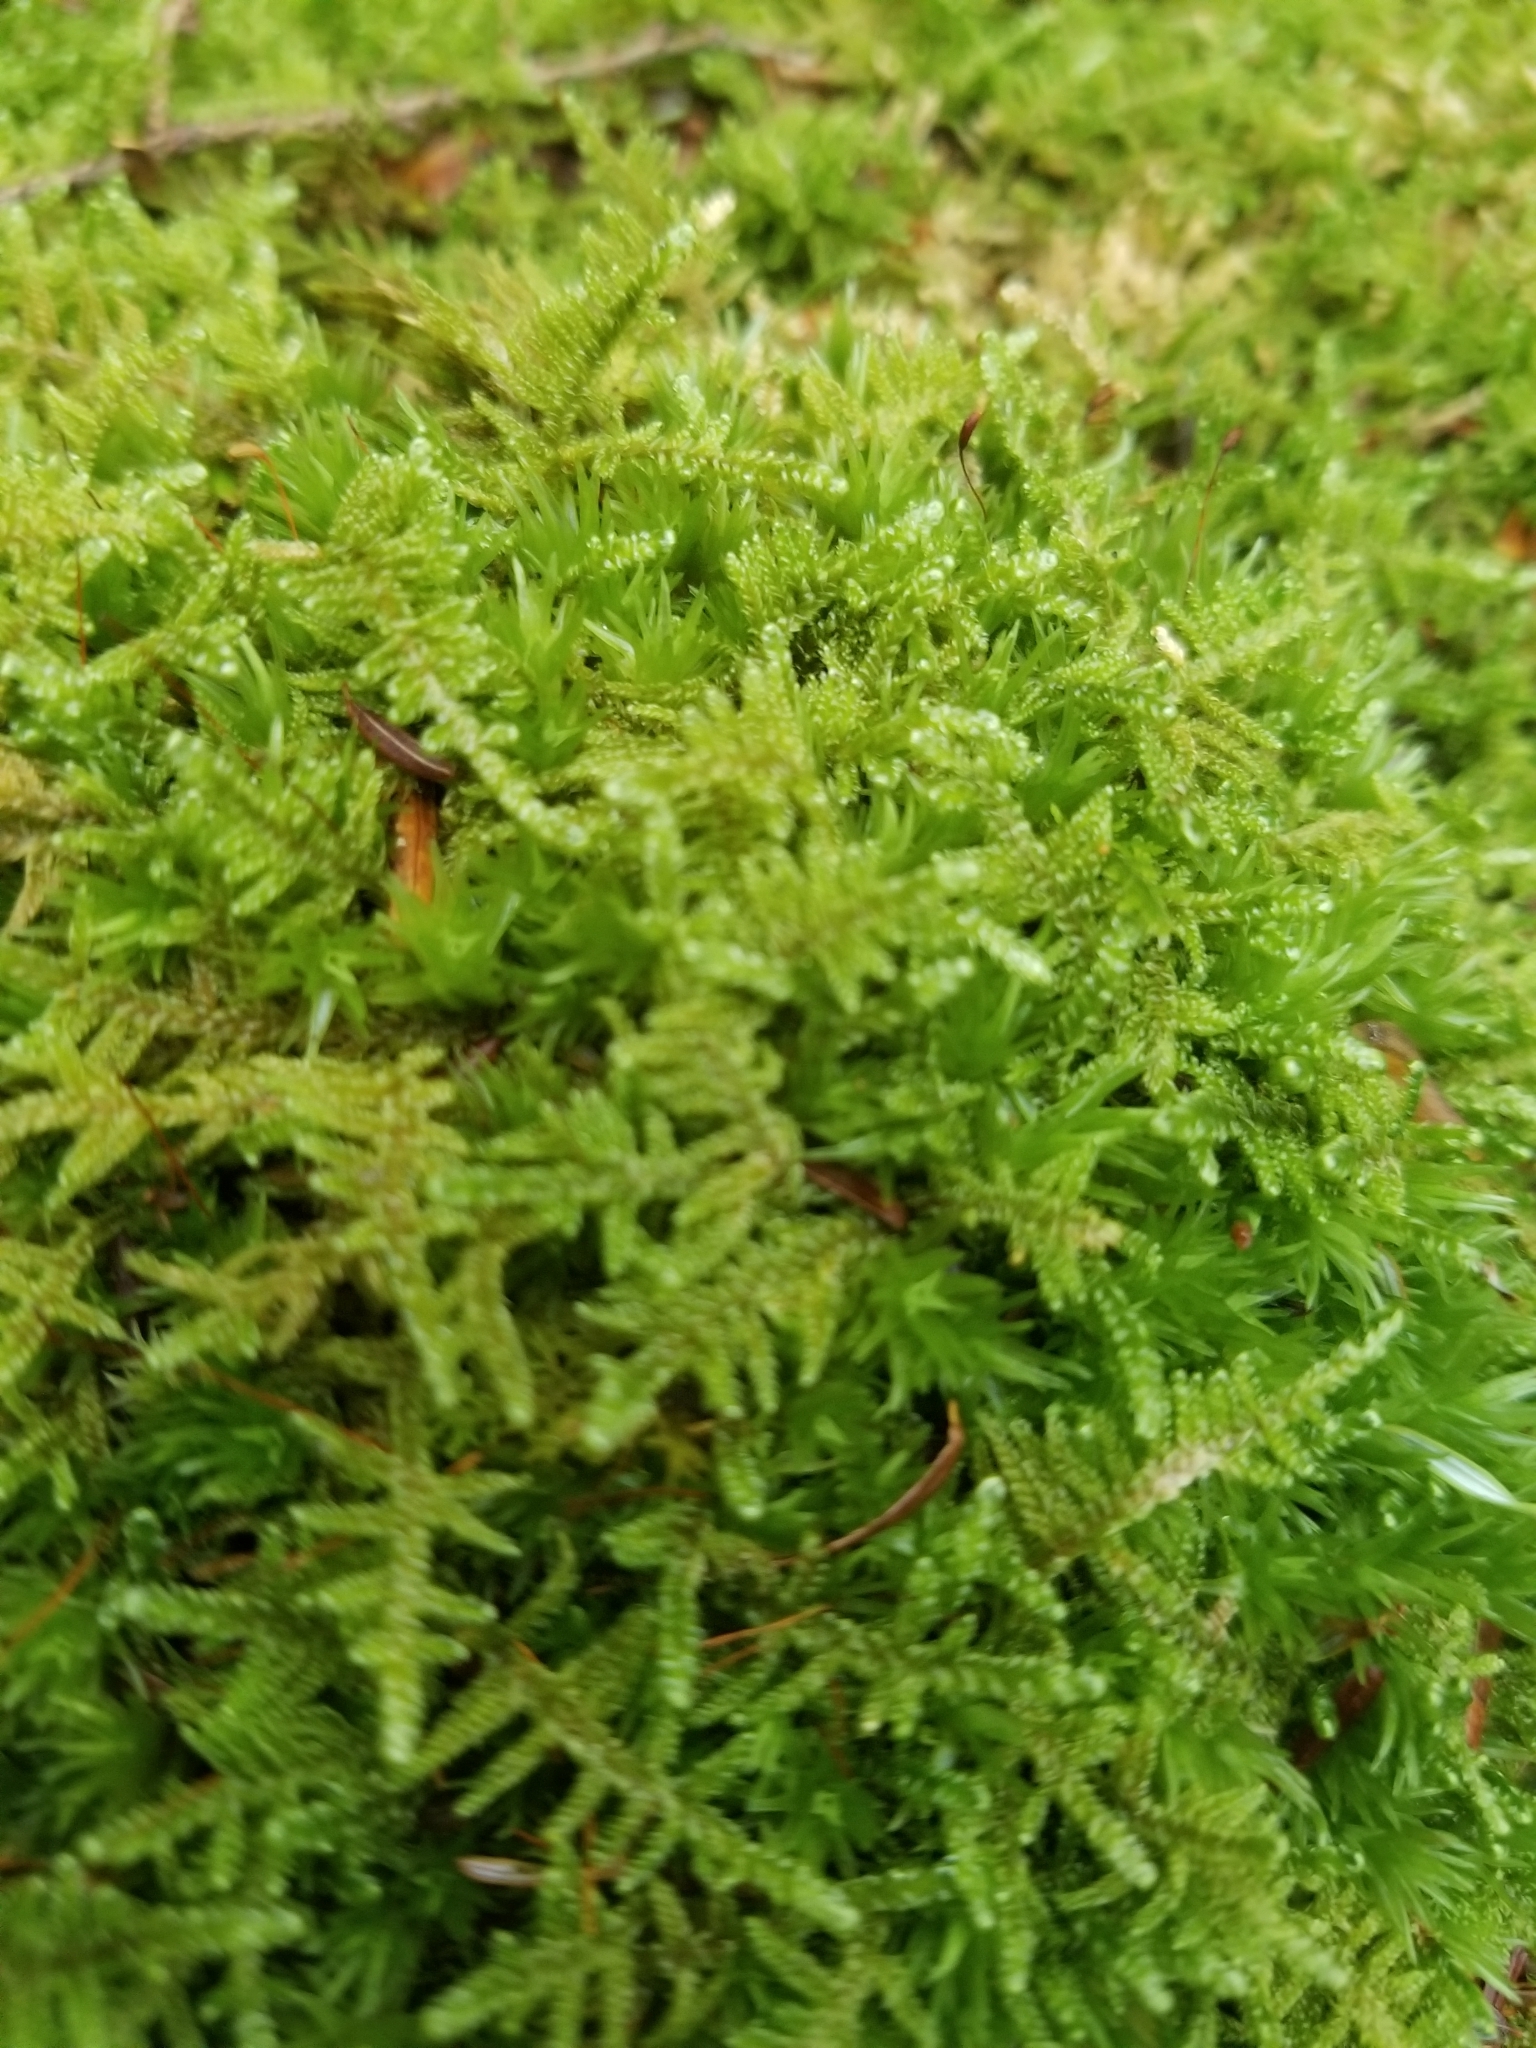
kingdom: Plantae
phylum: Bryophyta
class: Bryopsida
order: Hypnales
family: Callicladiaceae
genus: Callicladium
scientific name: Callicladium imponens
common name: Brocade moss
